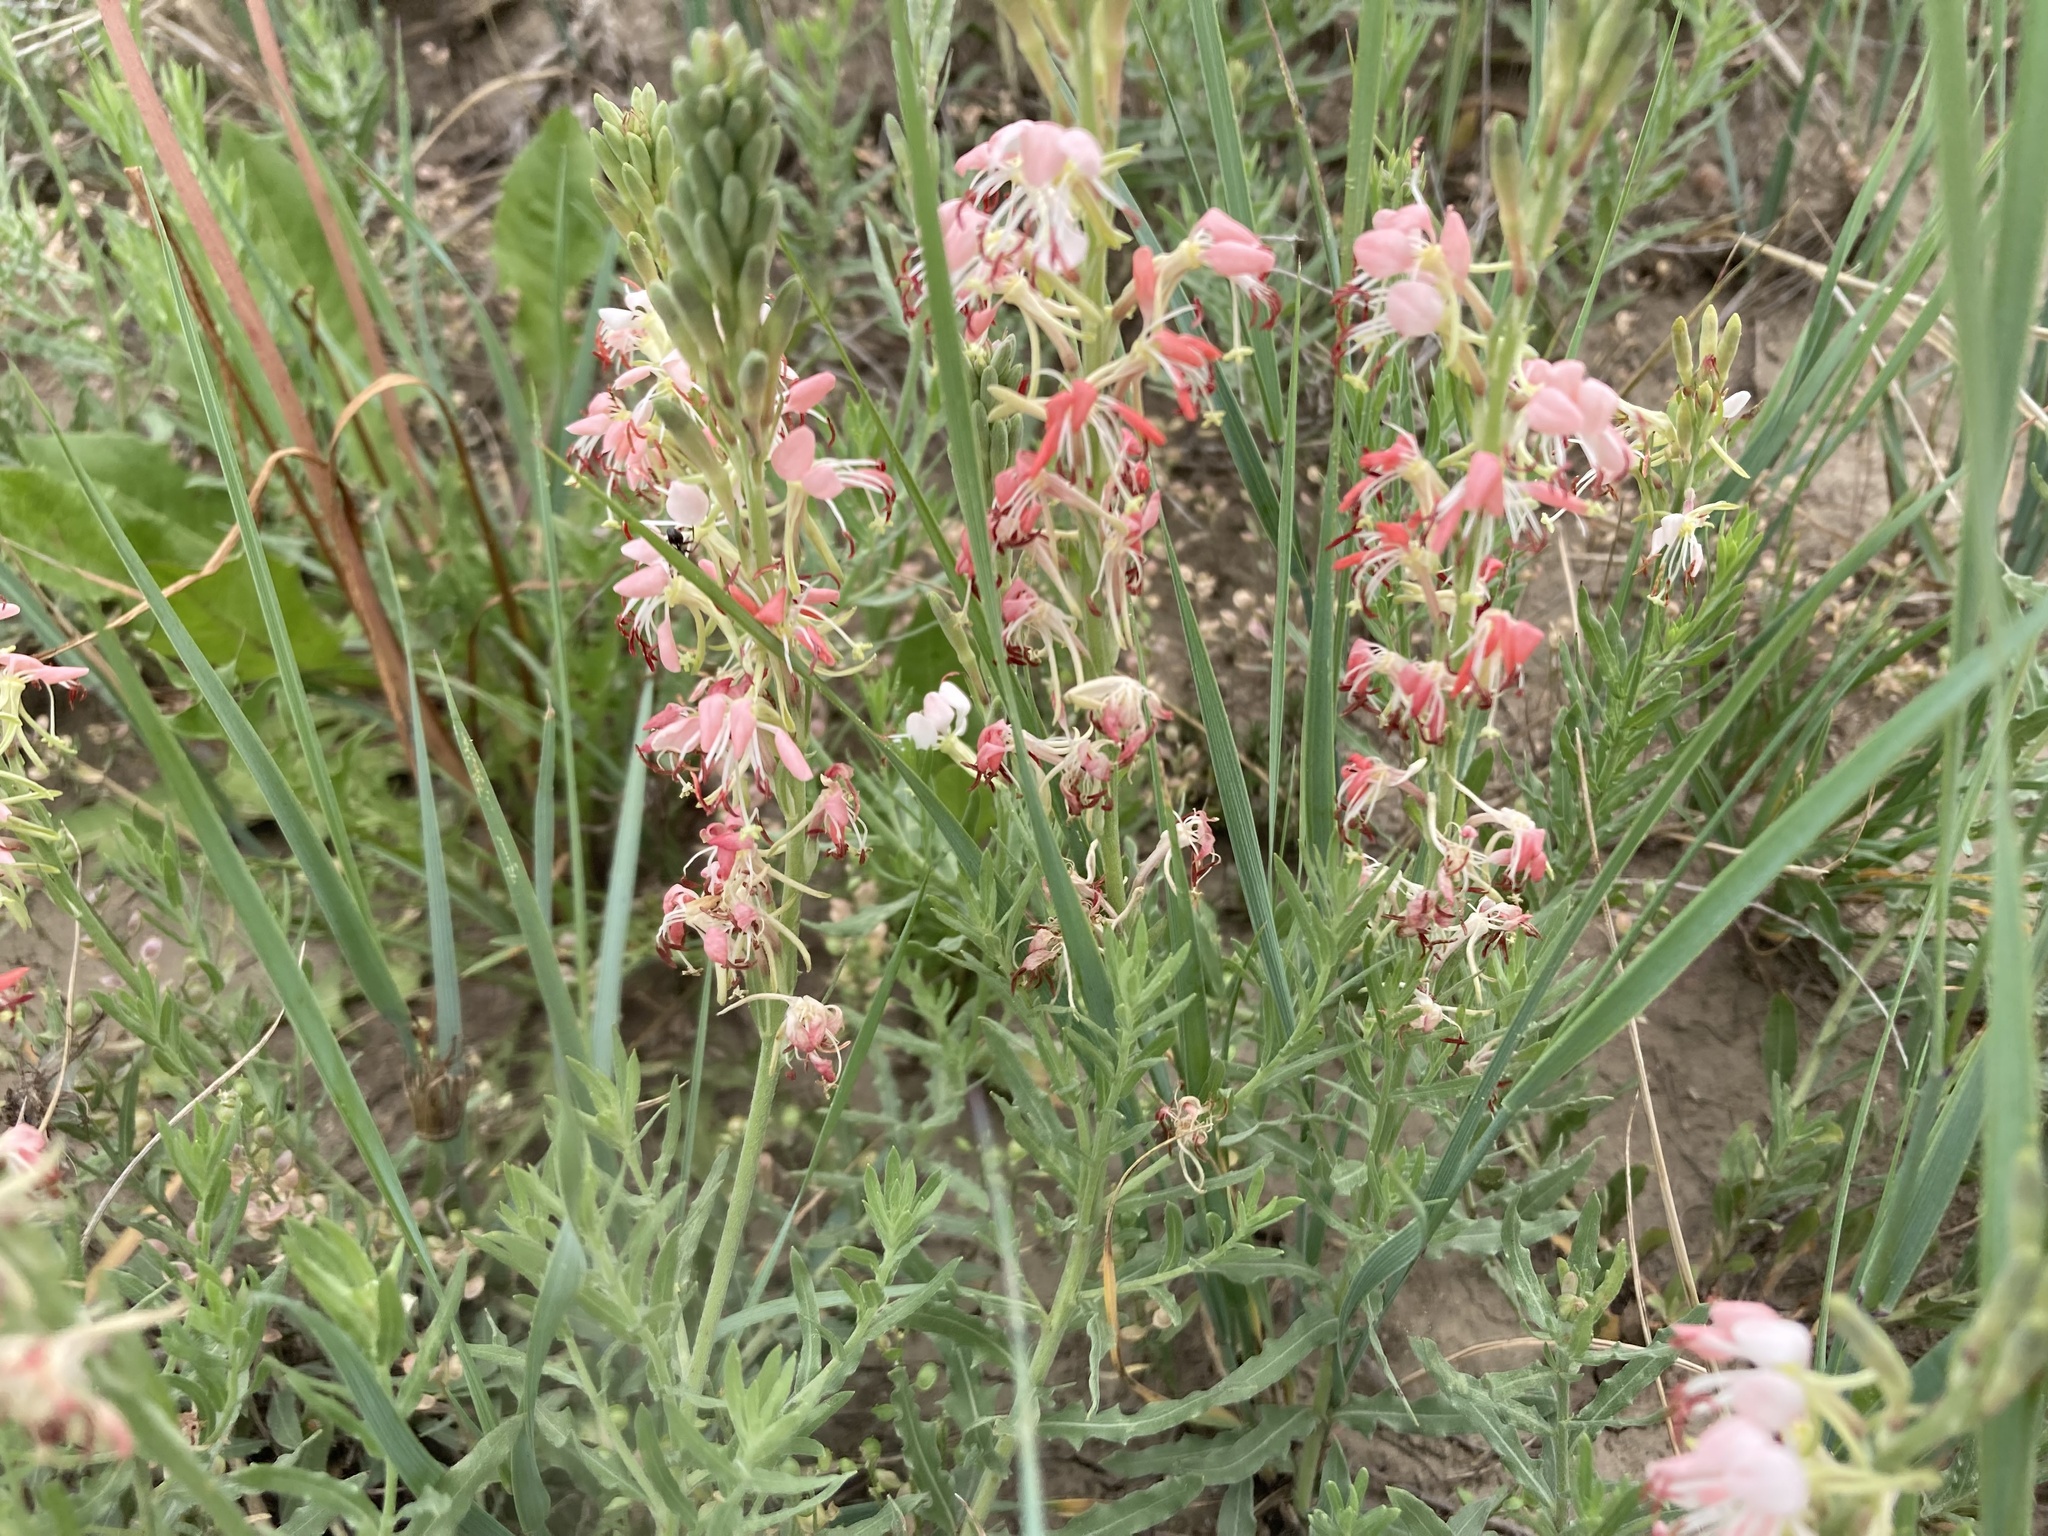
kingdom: Plantae
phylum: Tracheophyta
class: Magnoliopsida
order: Myrtales
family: Onagraceae
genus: Oenothera
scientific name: Oenothera suffrutescens
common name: Scarlet beeblossom
